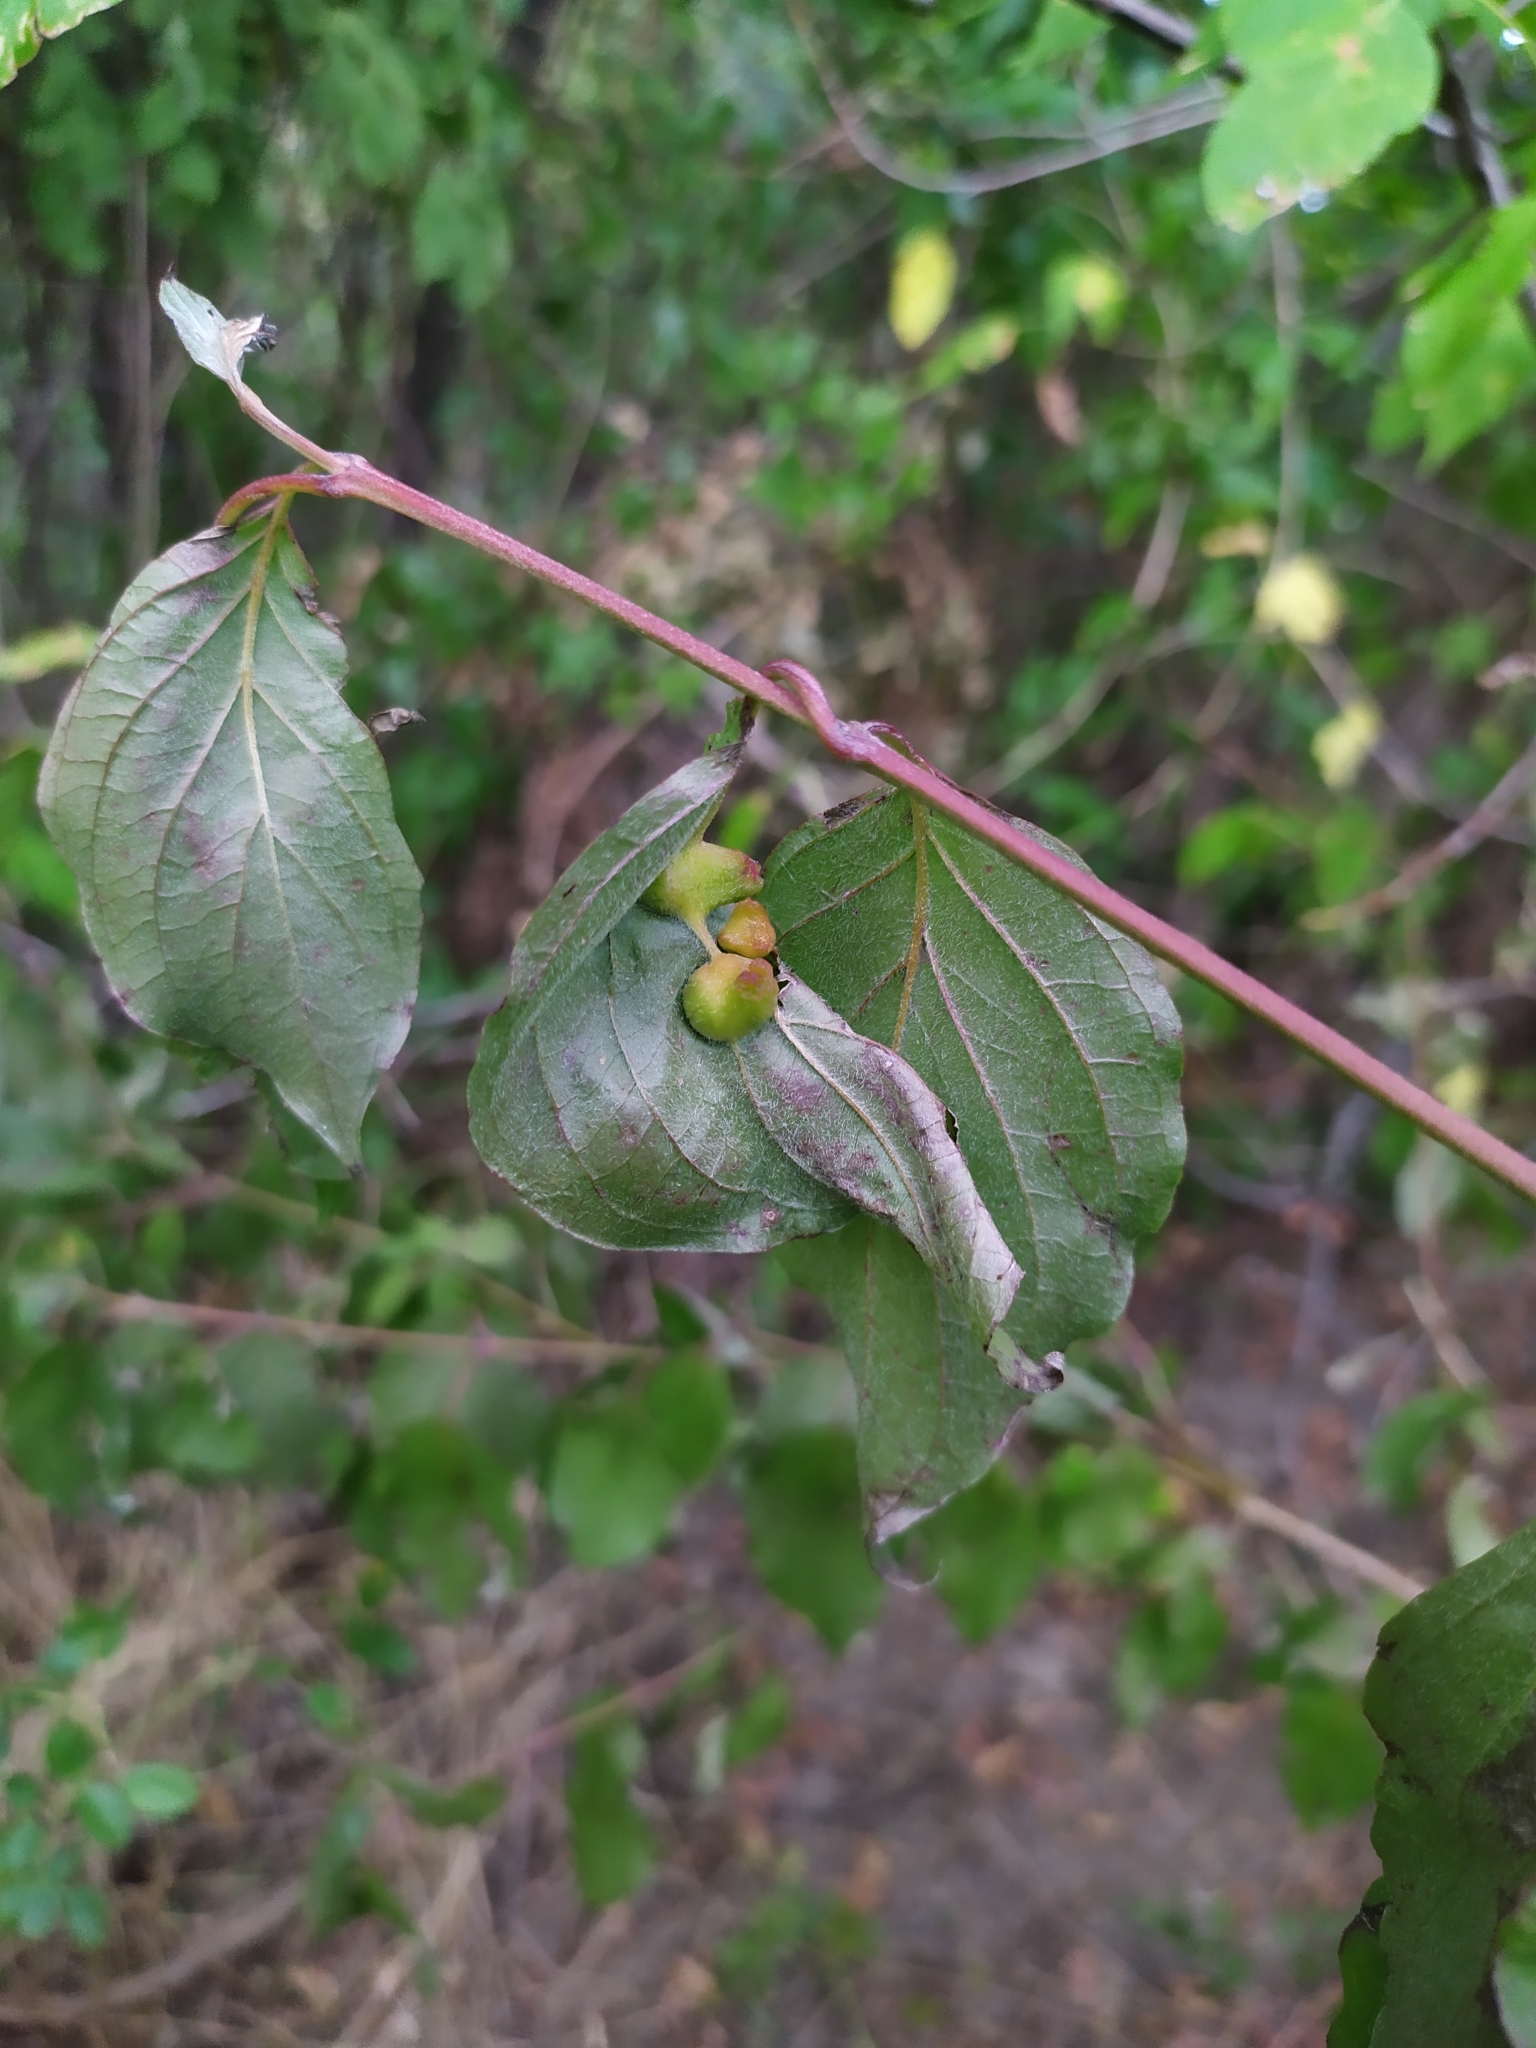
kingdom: Animalia
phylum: Arthropoda
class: Insecta
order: Diptera
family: Cecidomyiidae
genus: Craneiobia
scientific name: Craneiobia corni
